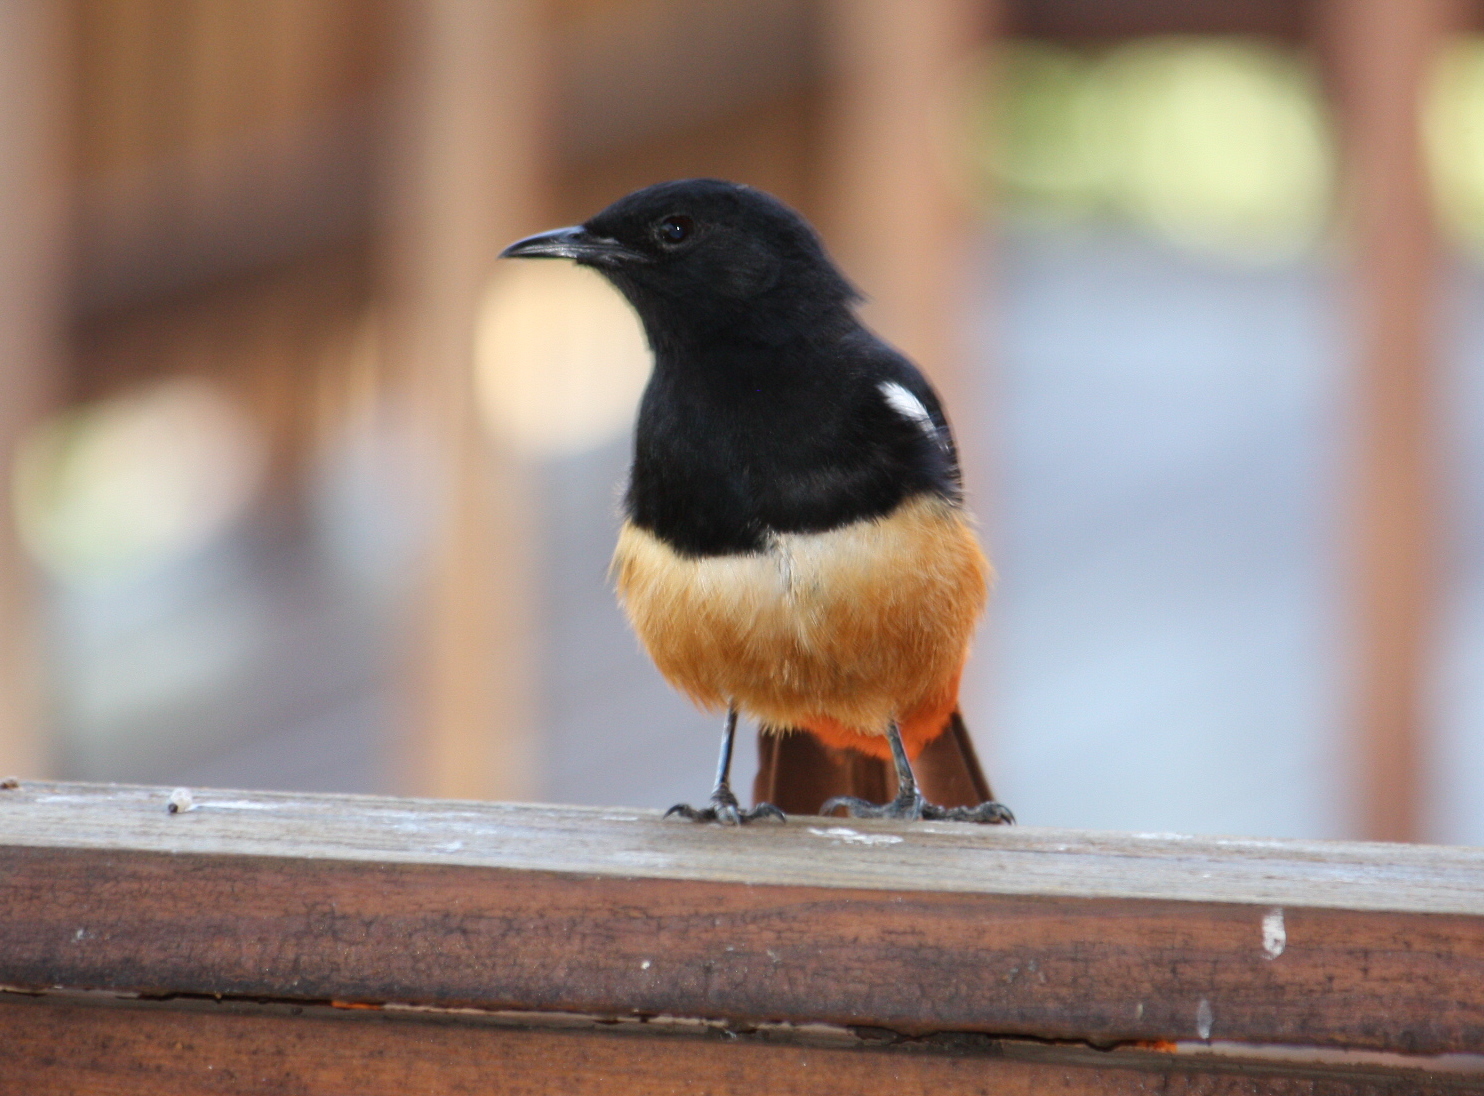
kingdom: Animalia
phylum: Chordata
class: Aves
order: Passeriformes
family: Muscicapidae
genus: Thamnolaea
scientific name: Thamnolaea cinnamomeiventris
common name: Mocking cliff chat
